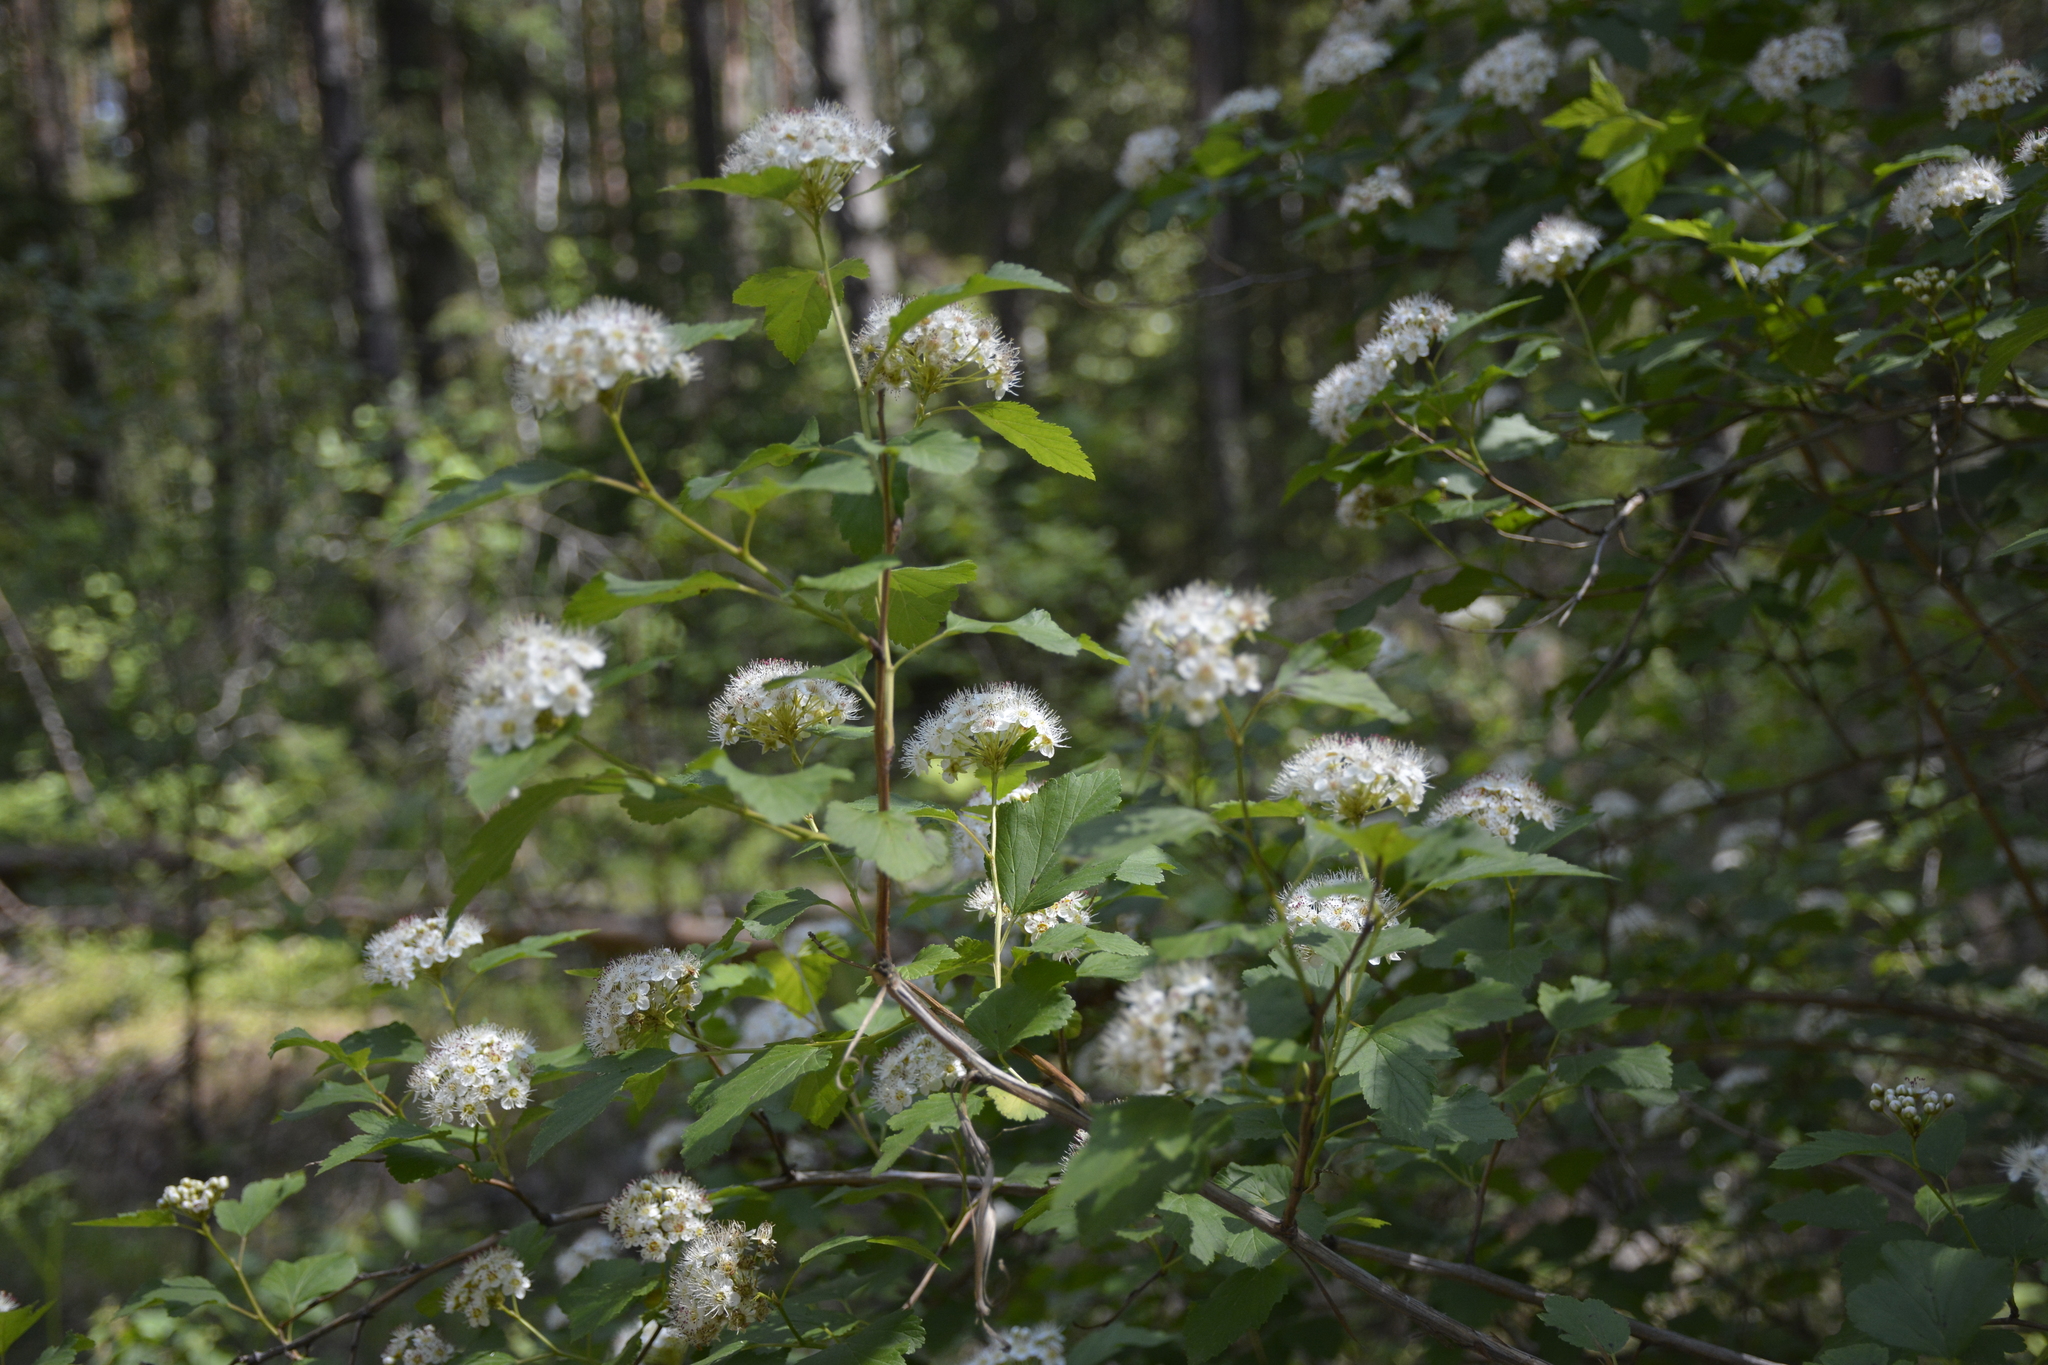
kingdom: Plantae
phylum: Tracheophyta
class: Magnoliopsida
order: Rosales
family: Rosaceae
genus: Physocarpus
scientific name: Physocarpus opulifolius
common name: Ninebark
